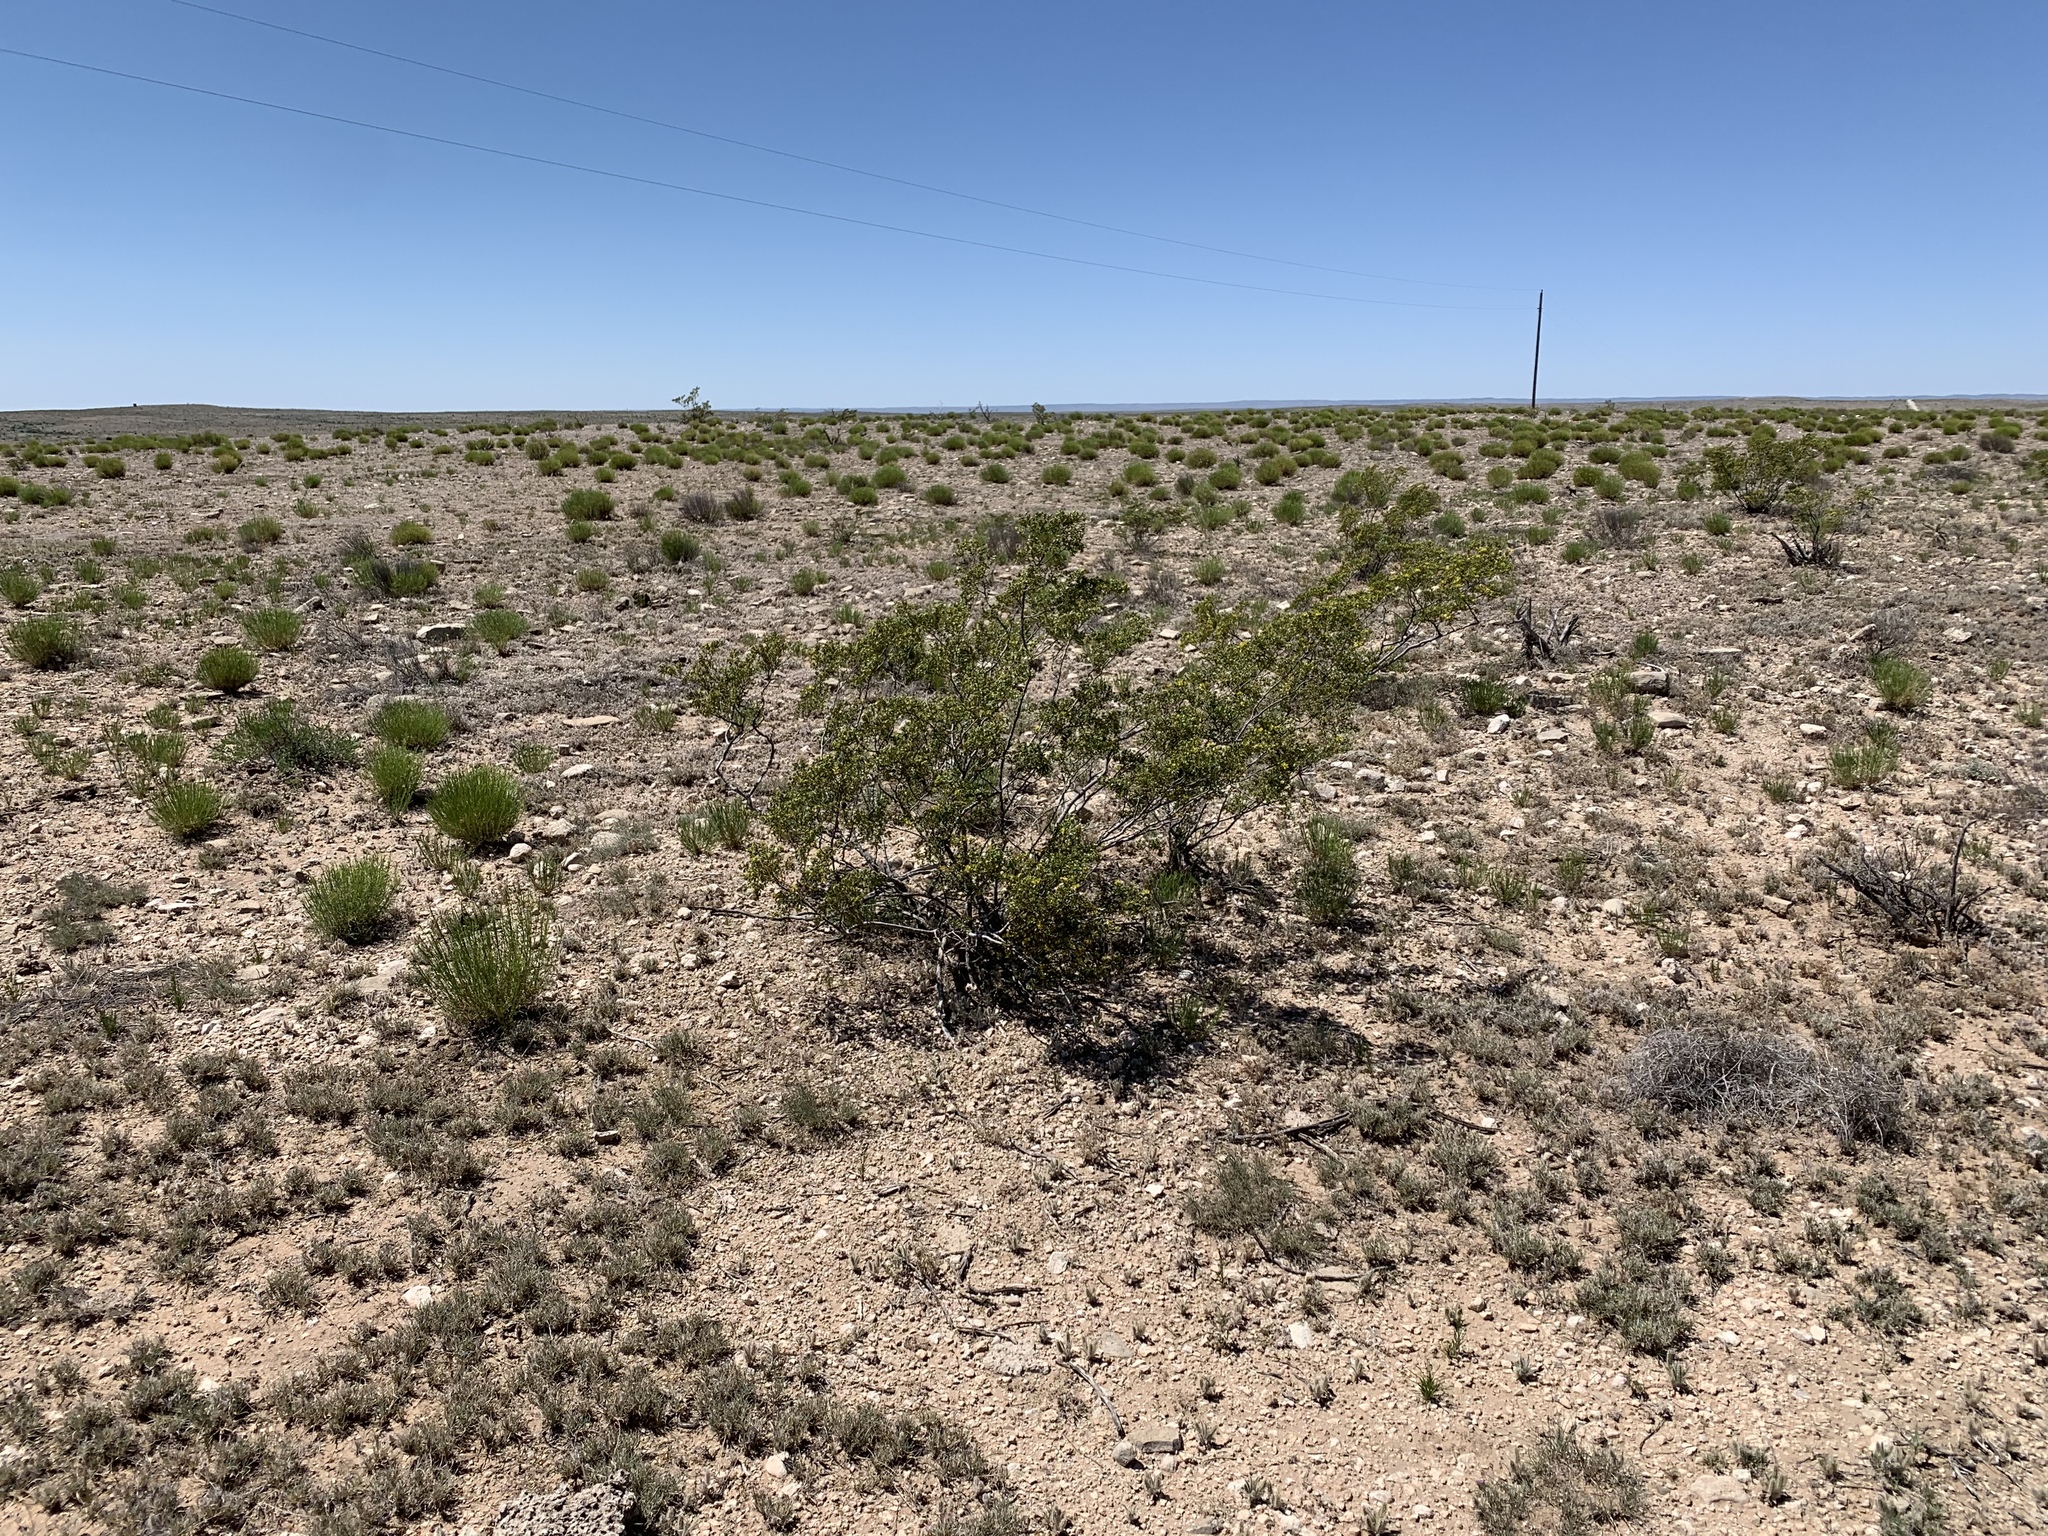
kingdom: Plantae
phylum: Tracheophyta
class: Magnoliopsida
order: Zygophyllales
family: Zygophyllaceae
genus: Larrea
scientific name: Larrea tridentata
